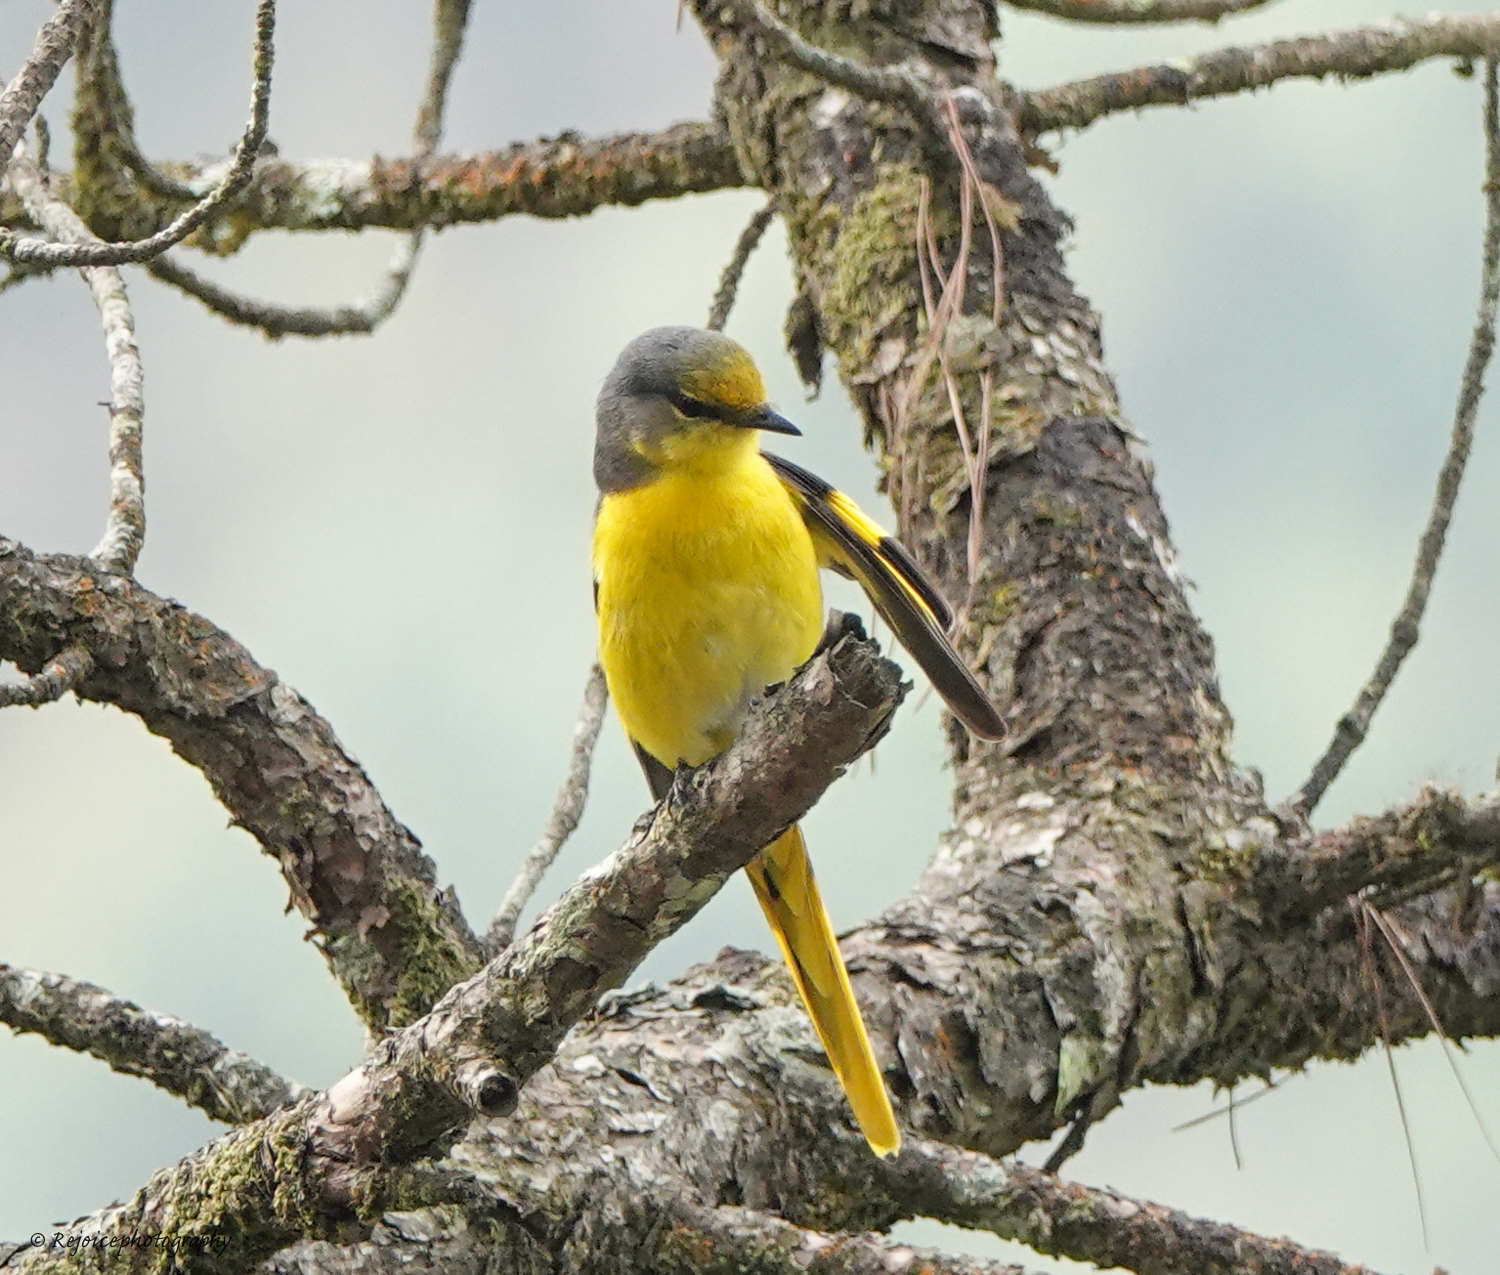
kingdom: Animalia
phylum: Chordata
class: Aves
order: Passeriformes
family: Campephagidae
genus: Pericrocotus
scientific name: Pericrocotus speciosus
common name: Scarlet minivet
